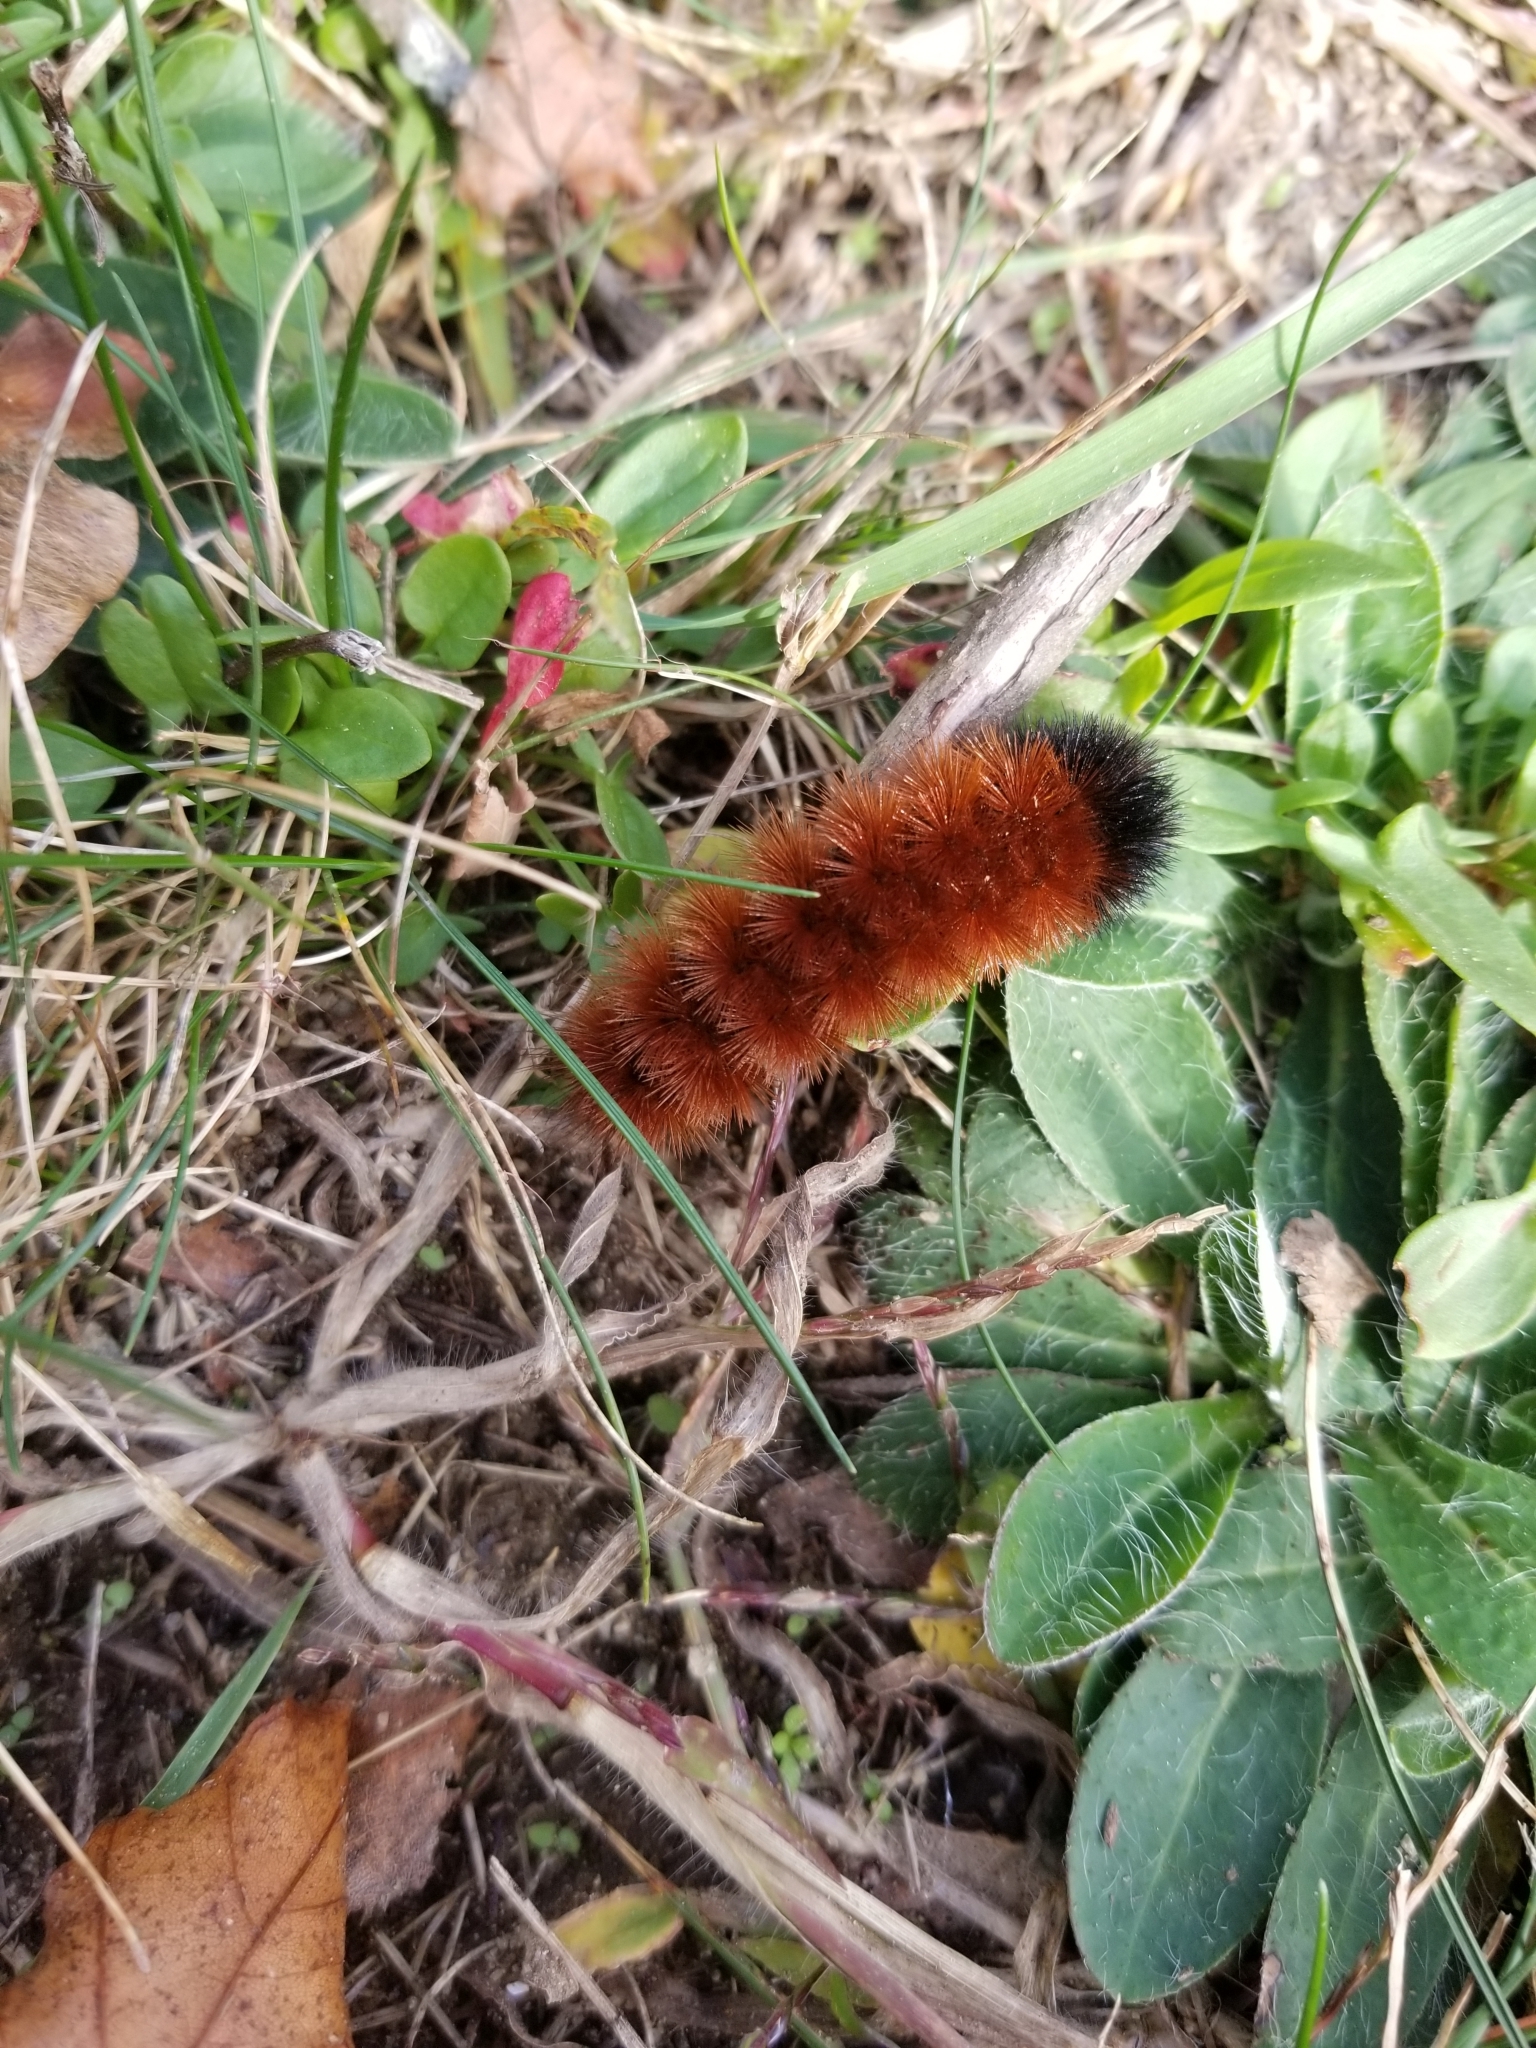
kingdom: Animalia
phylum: Arthropoda
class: Insecta
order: Lepidoptera
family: Erebidae
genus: Pyrrharctia
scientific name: Pyrrharctia isabella
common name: Isabella tiger moth
